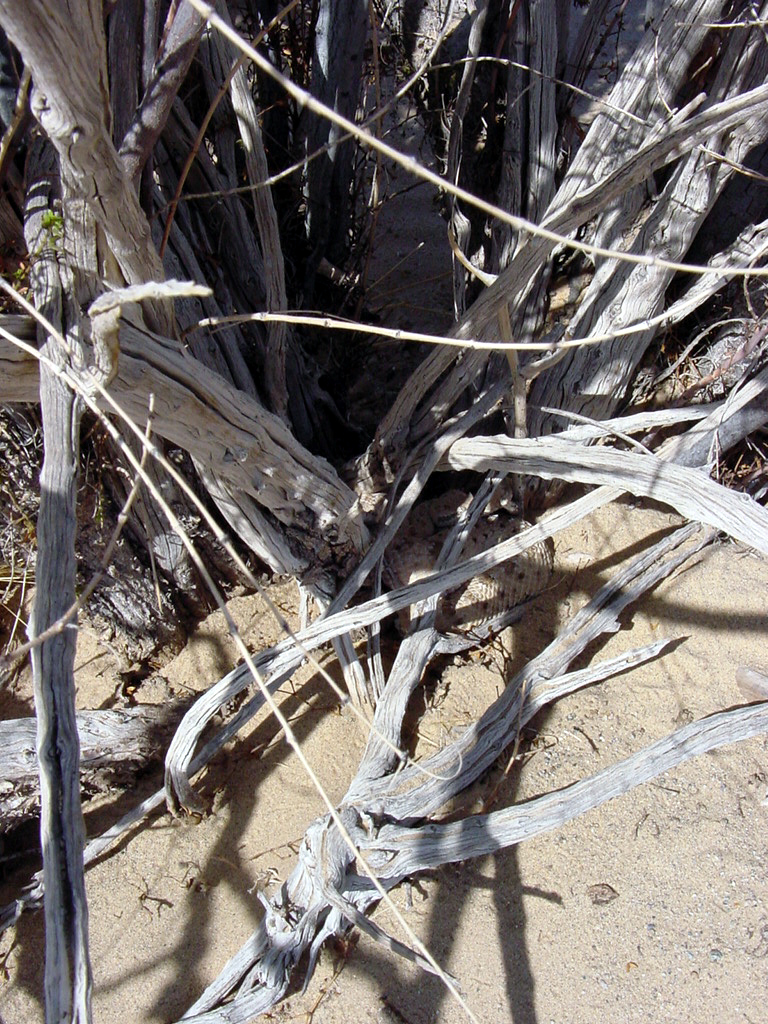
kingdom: Animalia
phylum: Chordata
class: Squamata
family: Viperidae
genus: Crotalus
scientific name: Crotalus cerastes
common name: Sidewinder
